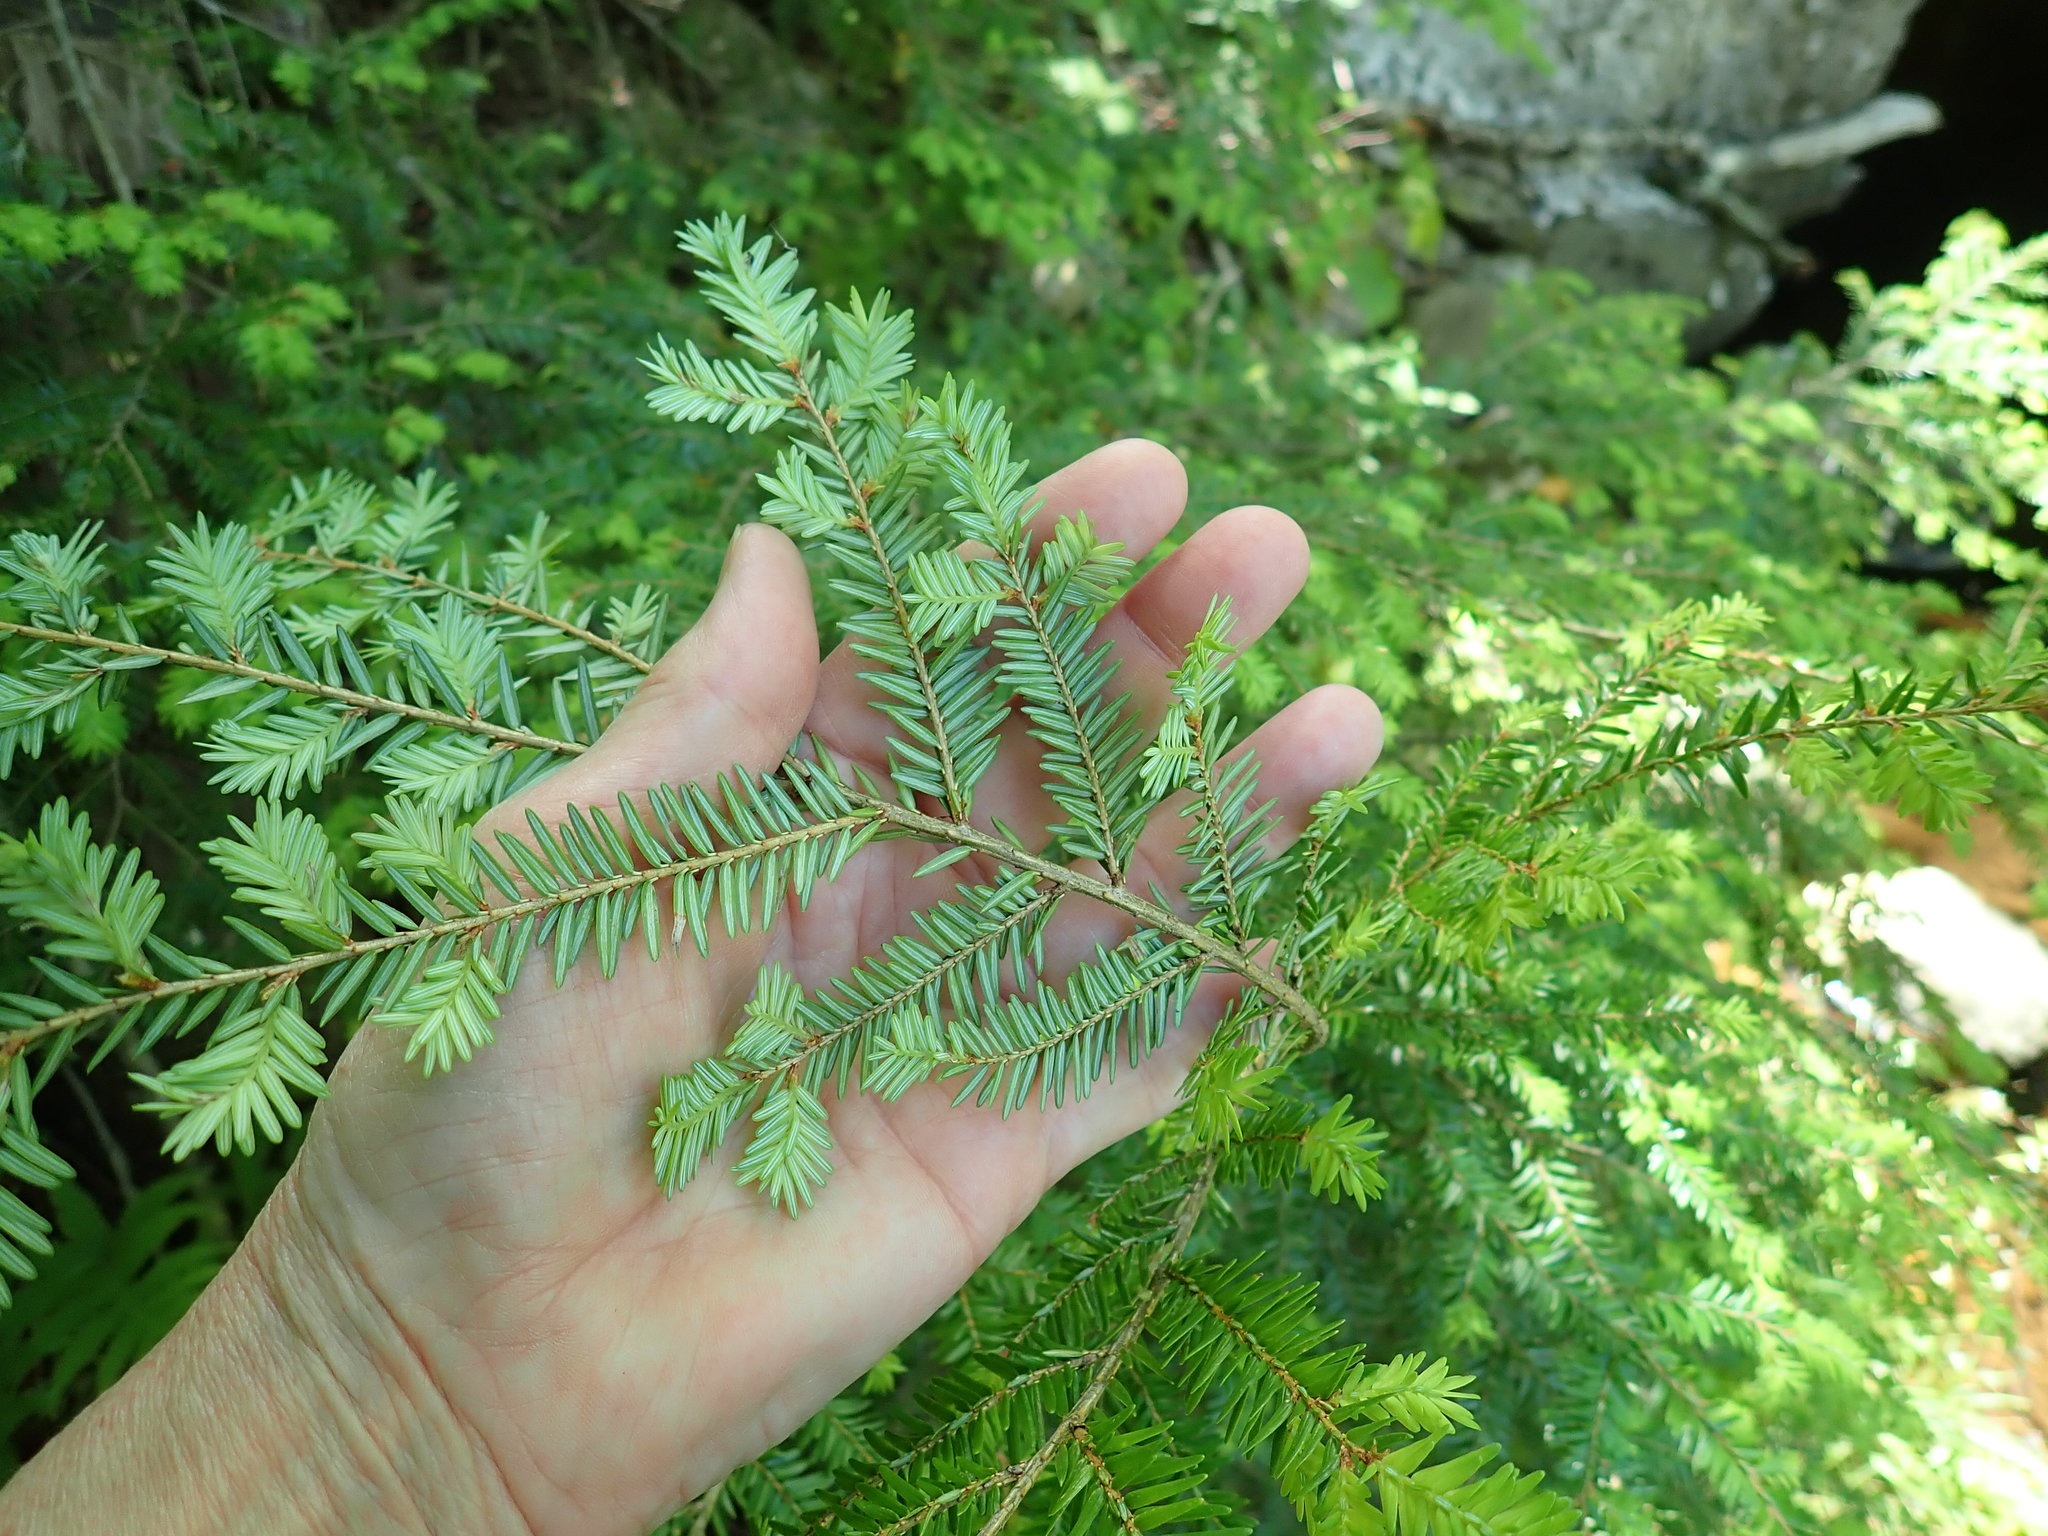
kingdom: Plantae
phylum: Tracheophyta
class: Pinopsida
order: Pinales
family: Pinaceae
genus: Tsuga
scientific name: Tsuga canadensis
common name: Eastern hemlock
